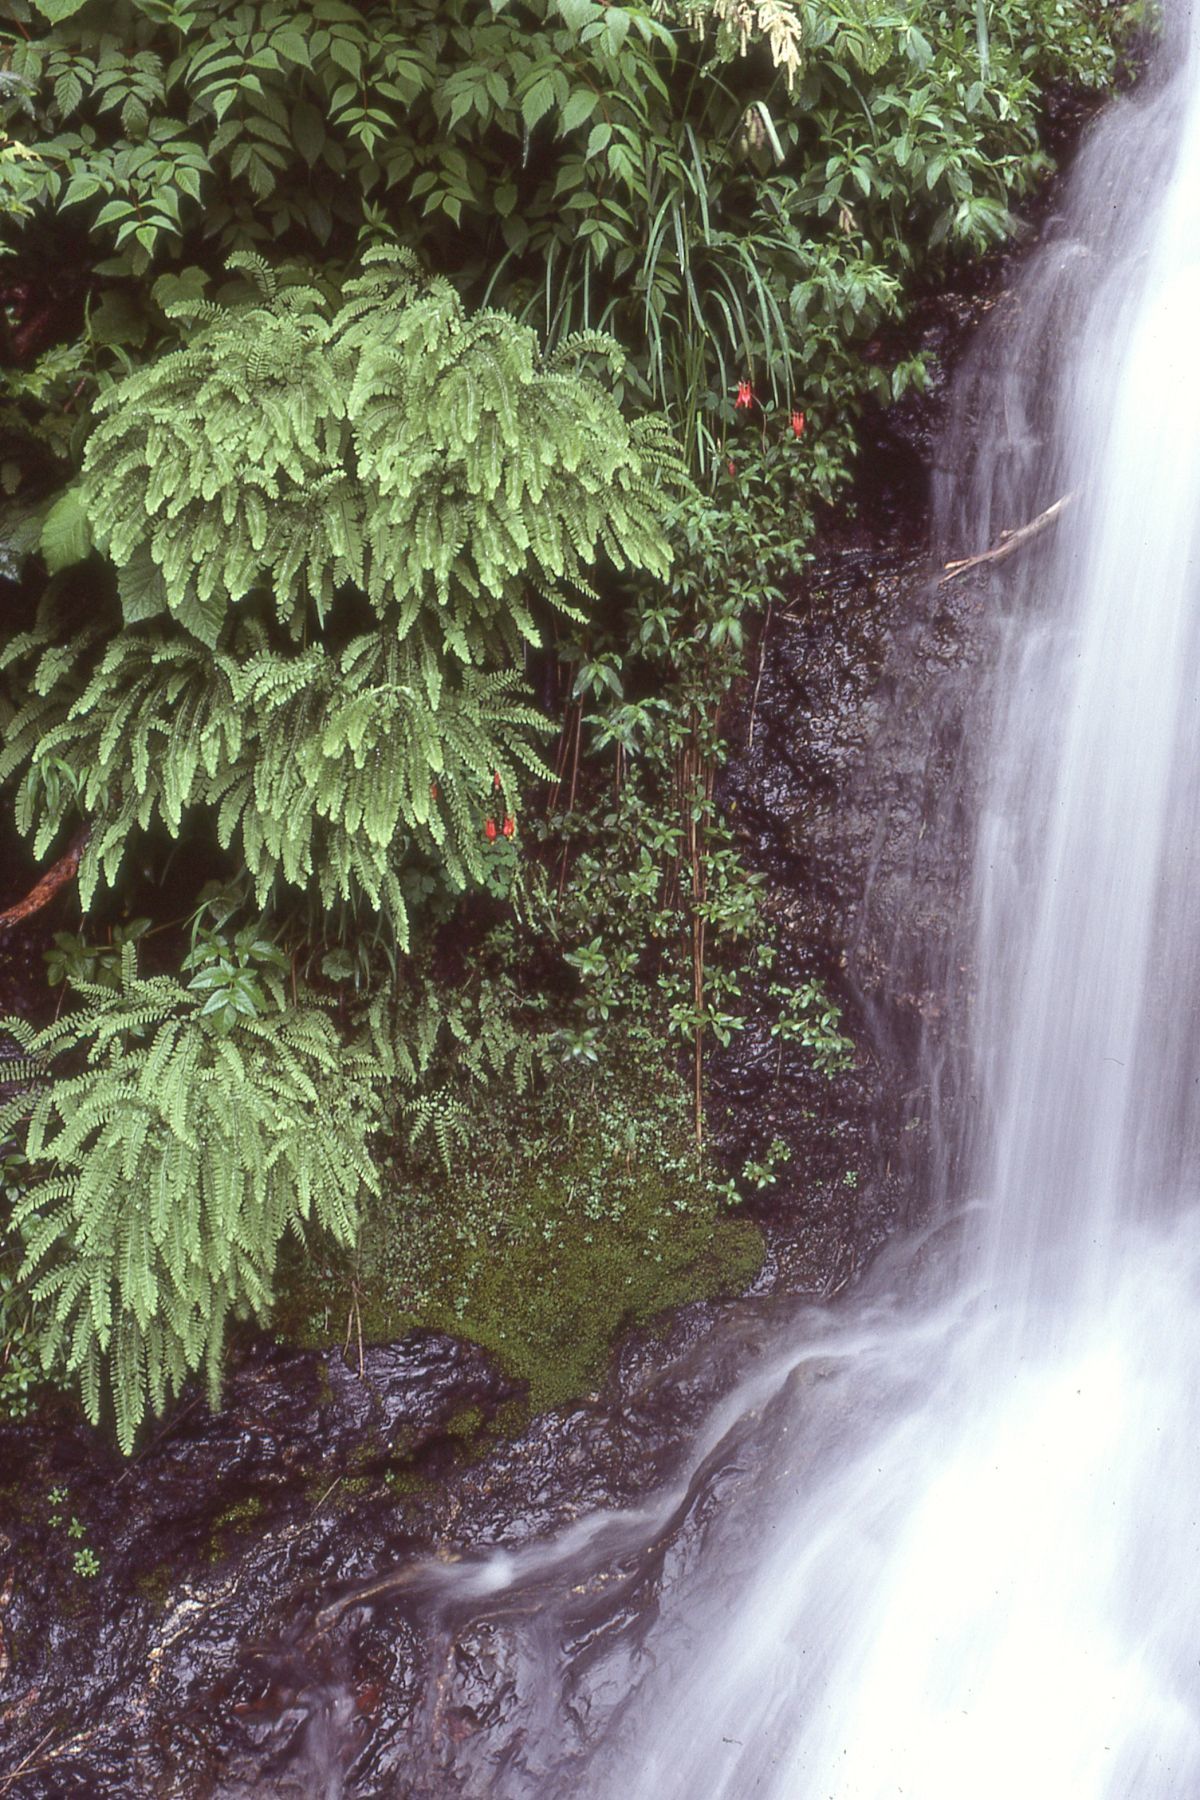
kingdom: Plantae
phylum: Tracheophyta
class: Polypodiopsida
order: Polypodiales
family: Pteridaceae
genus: Adiantum
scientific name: Adiantum aleuticum
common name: Aleutian maidenhair fern
